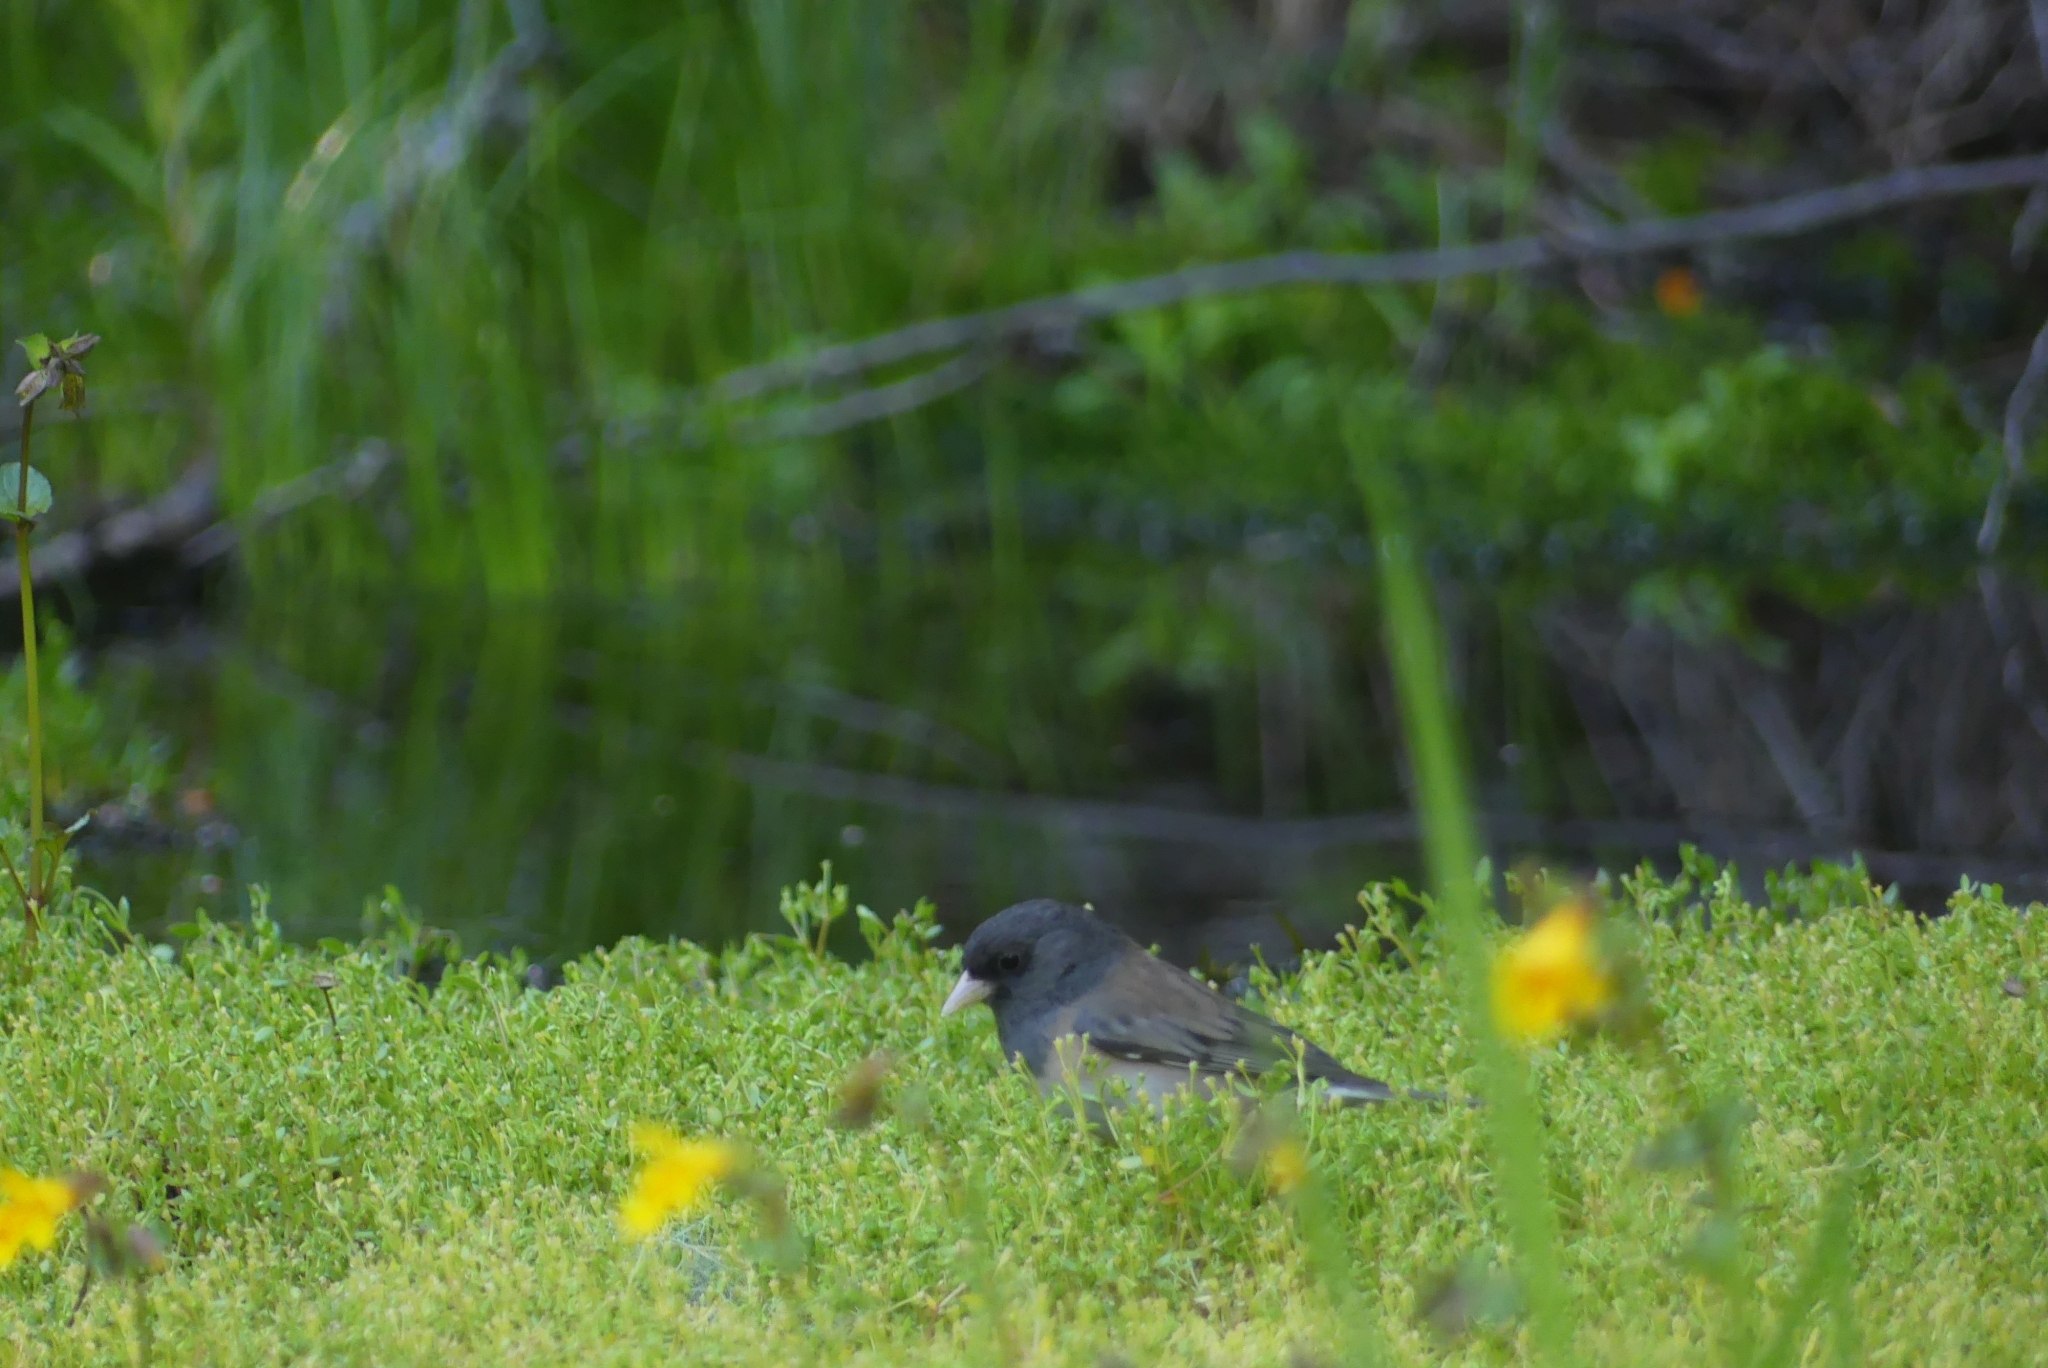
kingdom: Animalia
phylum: Chordata
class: Aves
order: Passeriformes
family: Passerellidae
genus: Junco
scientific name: Junco hyemalis
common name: Dark-eyed junco
